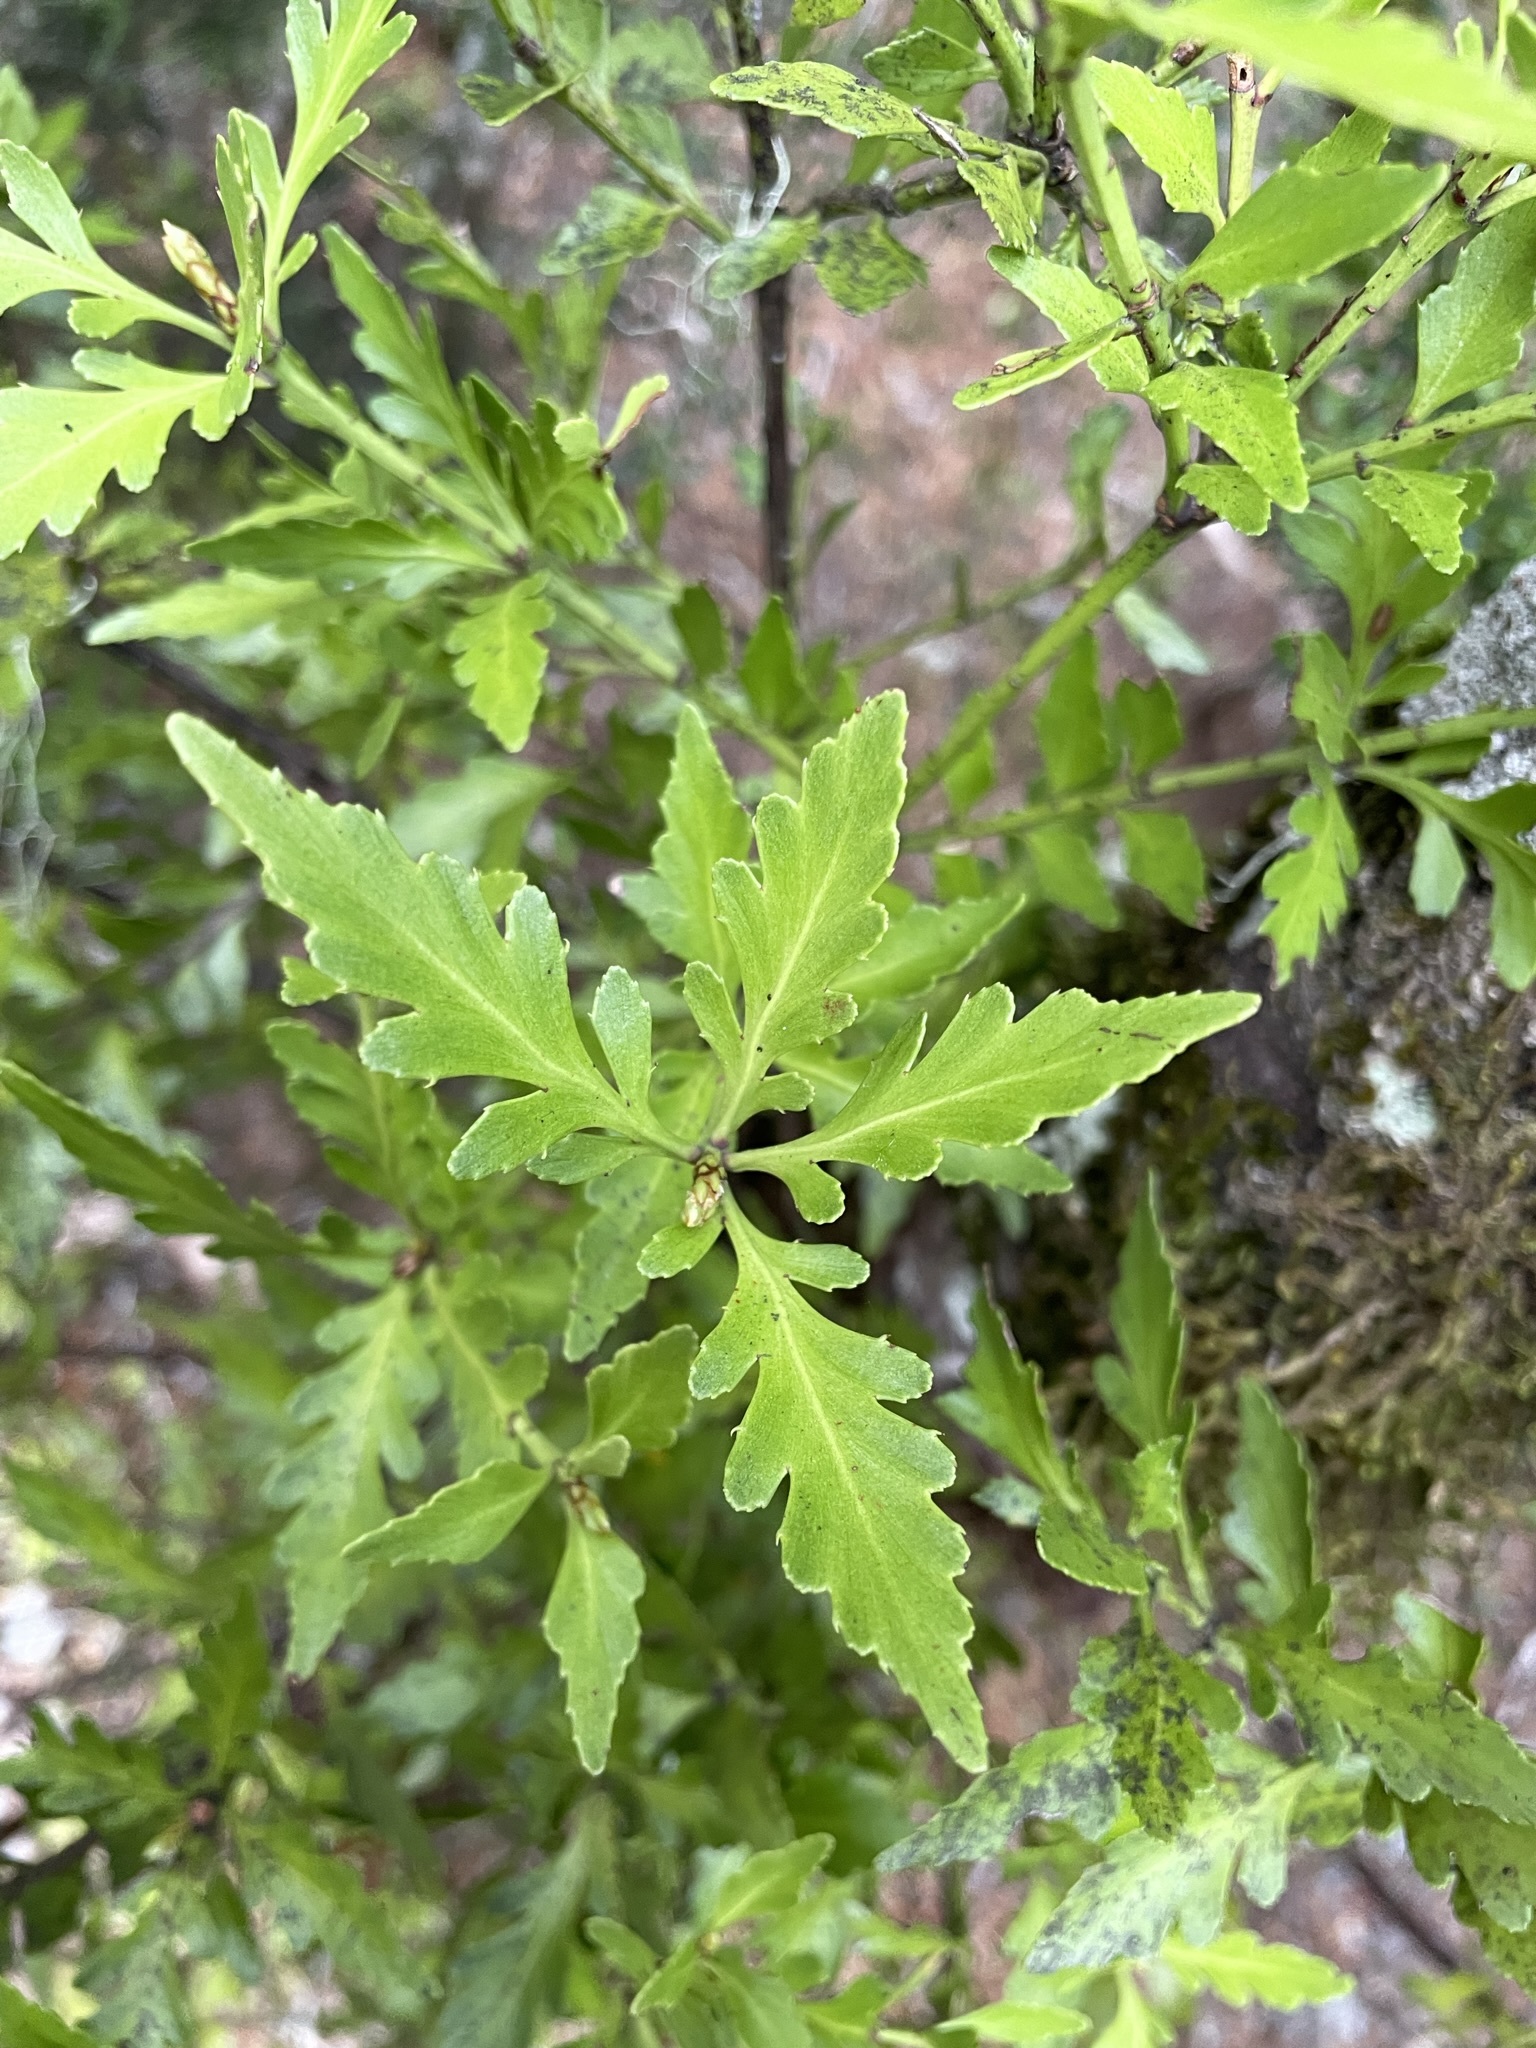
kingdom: Plantae
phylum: Tracheophyta
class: Pinopsida
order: Pinales
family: Phyllocladaceae
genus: Phyllocladus
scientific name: Phyllocladus trichomanoides
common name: Celery pine
